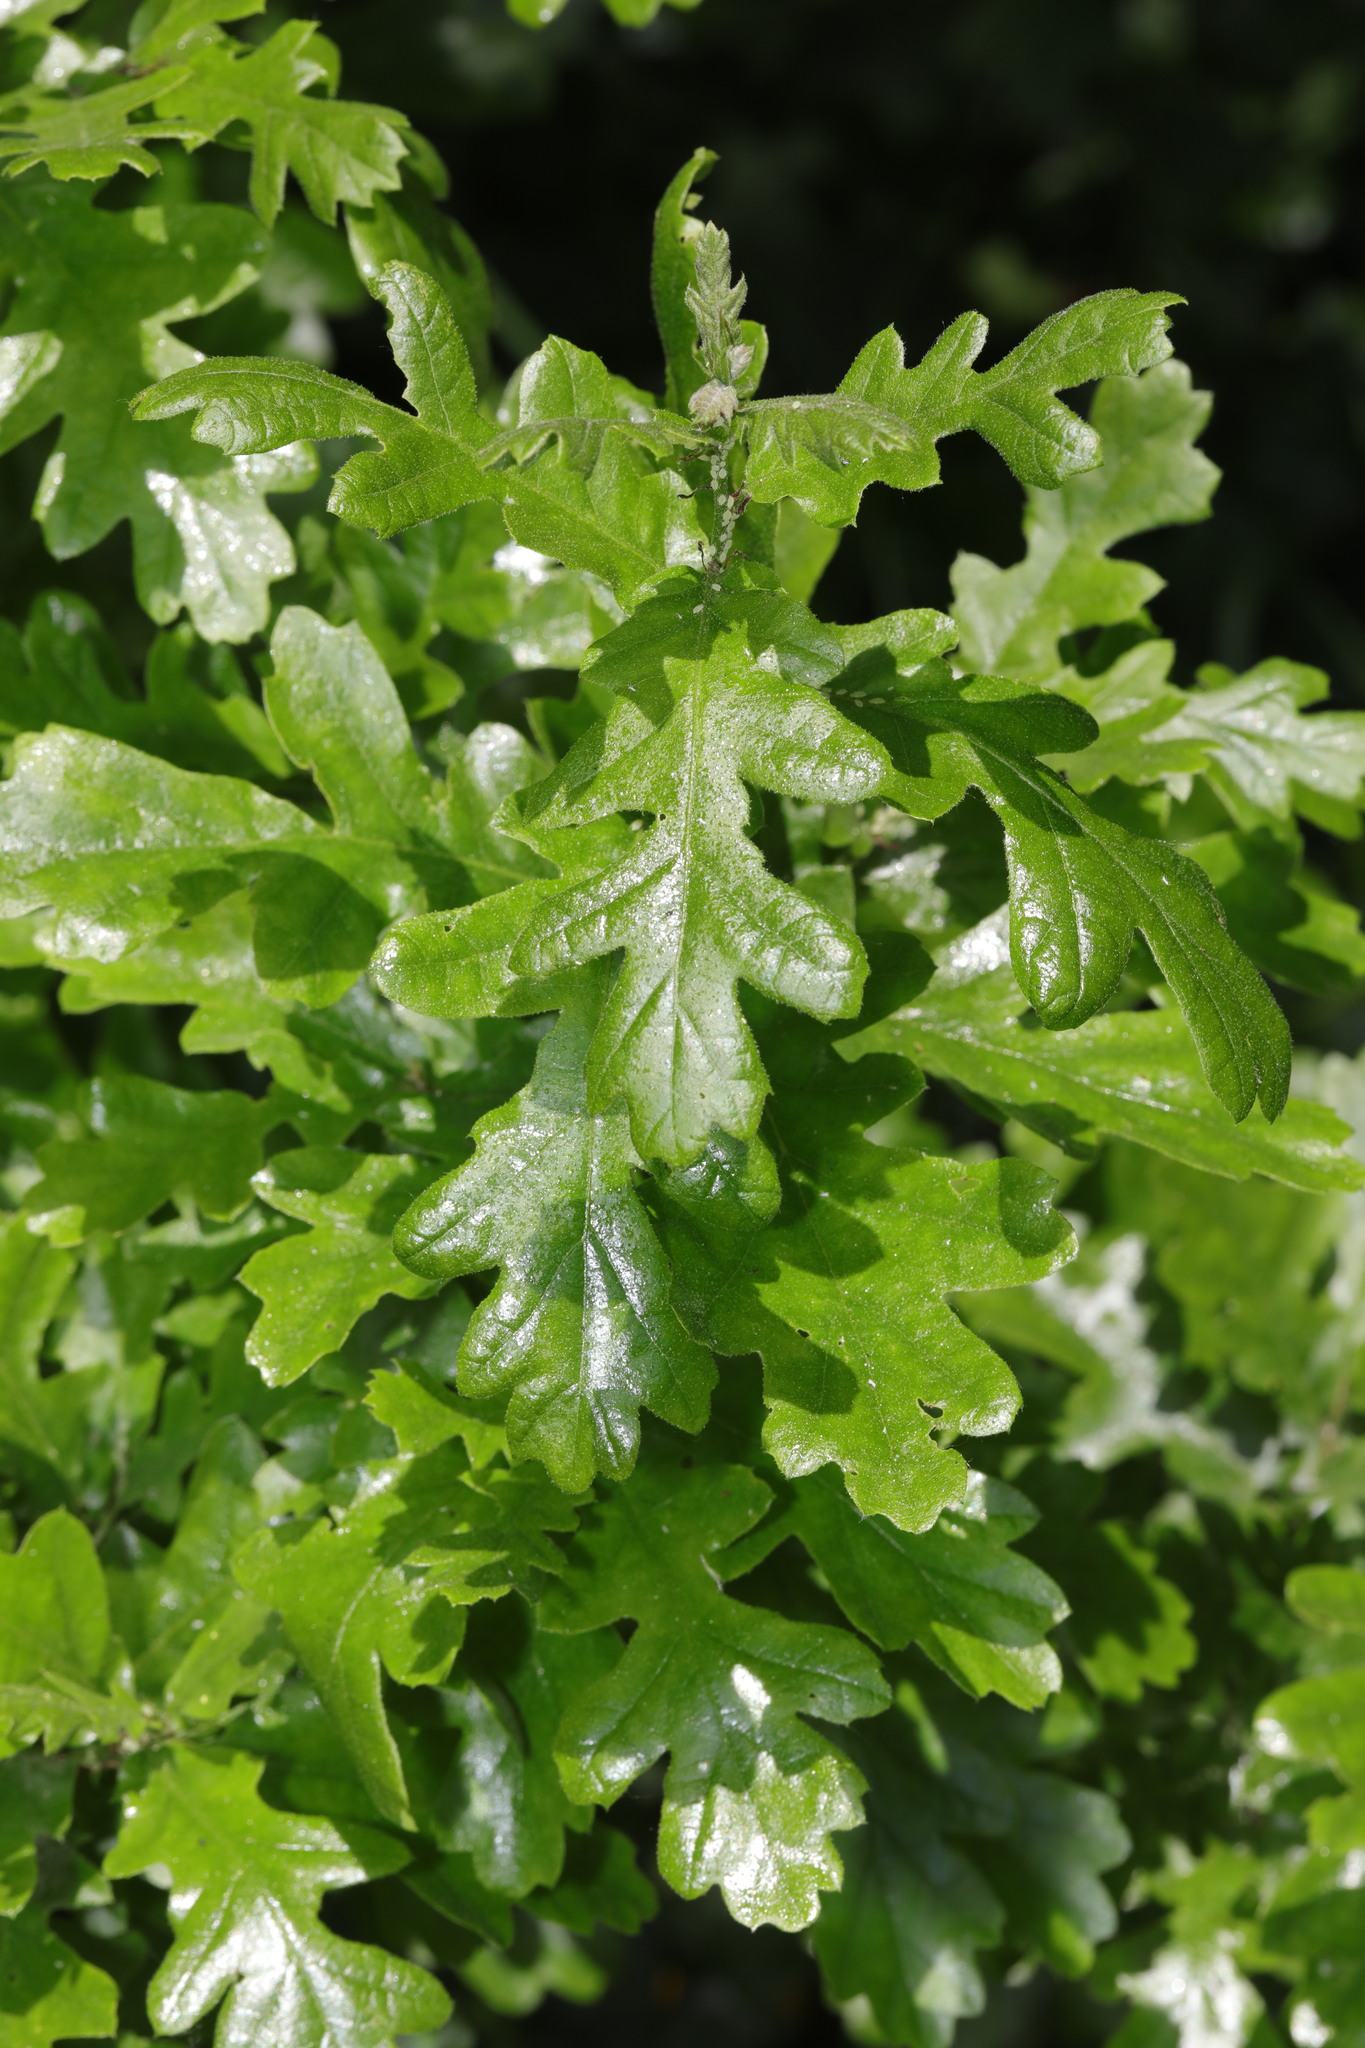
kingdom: Plantae
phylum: Tracheophyta
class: Magnoliopsida
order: Fagales
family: Fagaceae
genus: Quercus
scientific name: Quercus cerris
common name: Turkey oak
